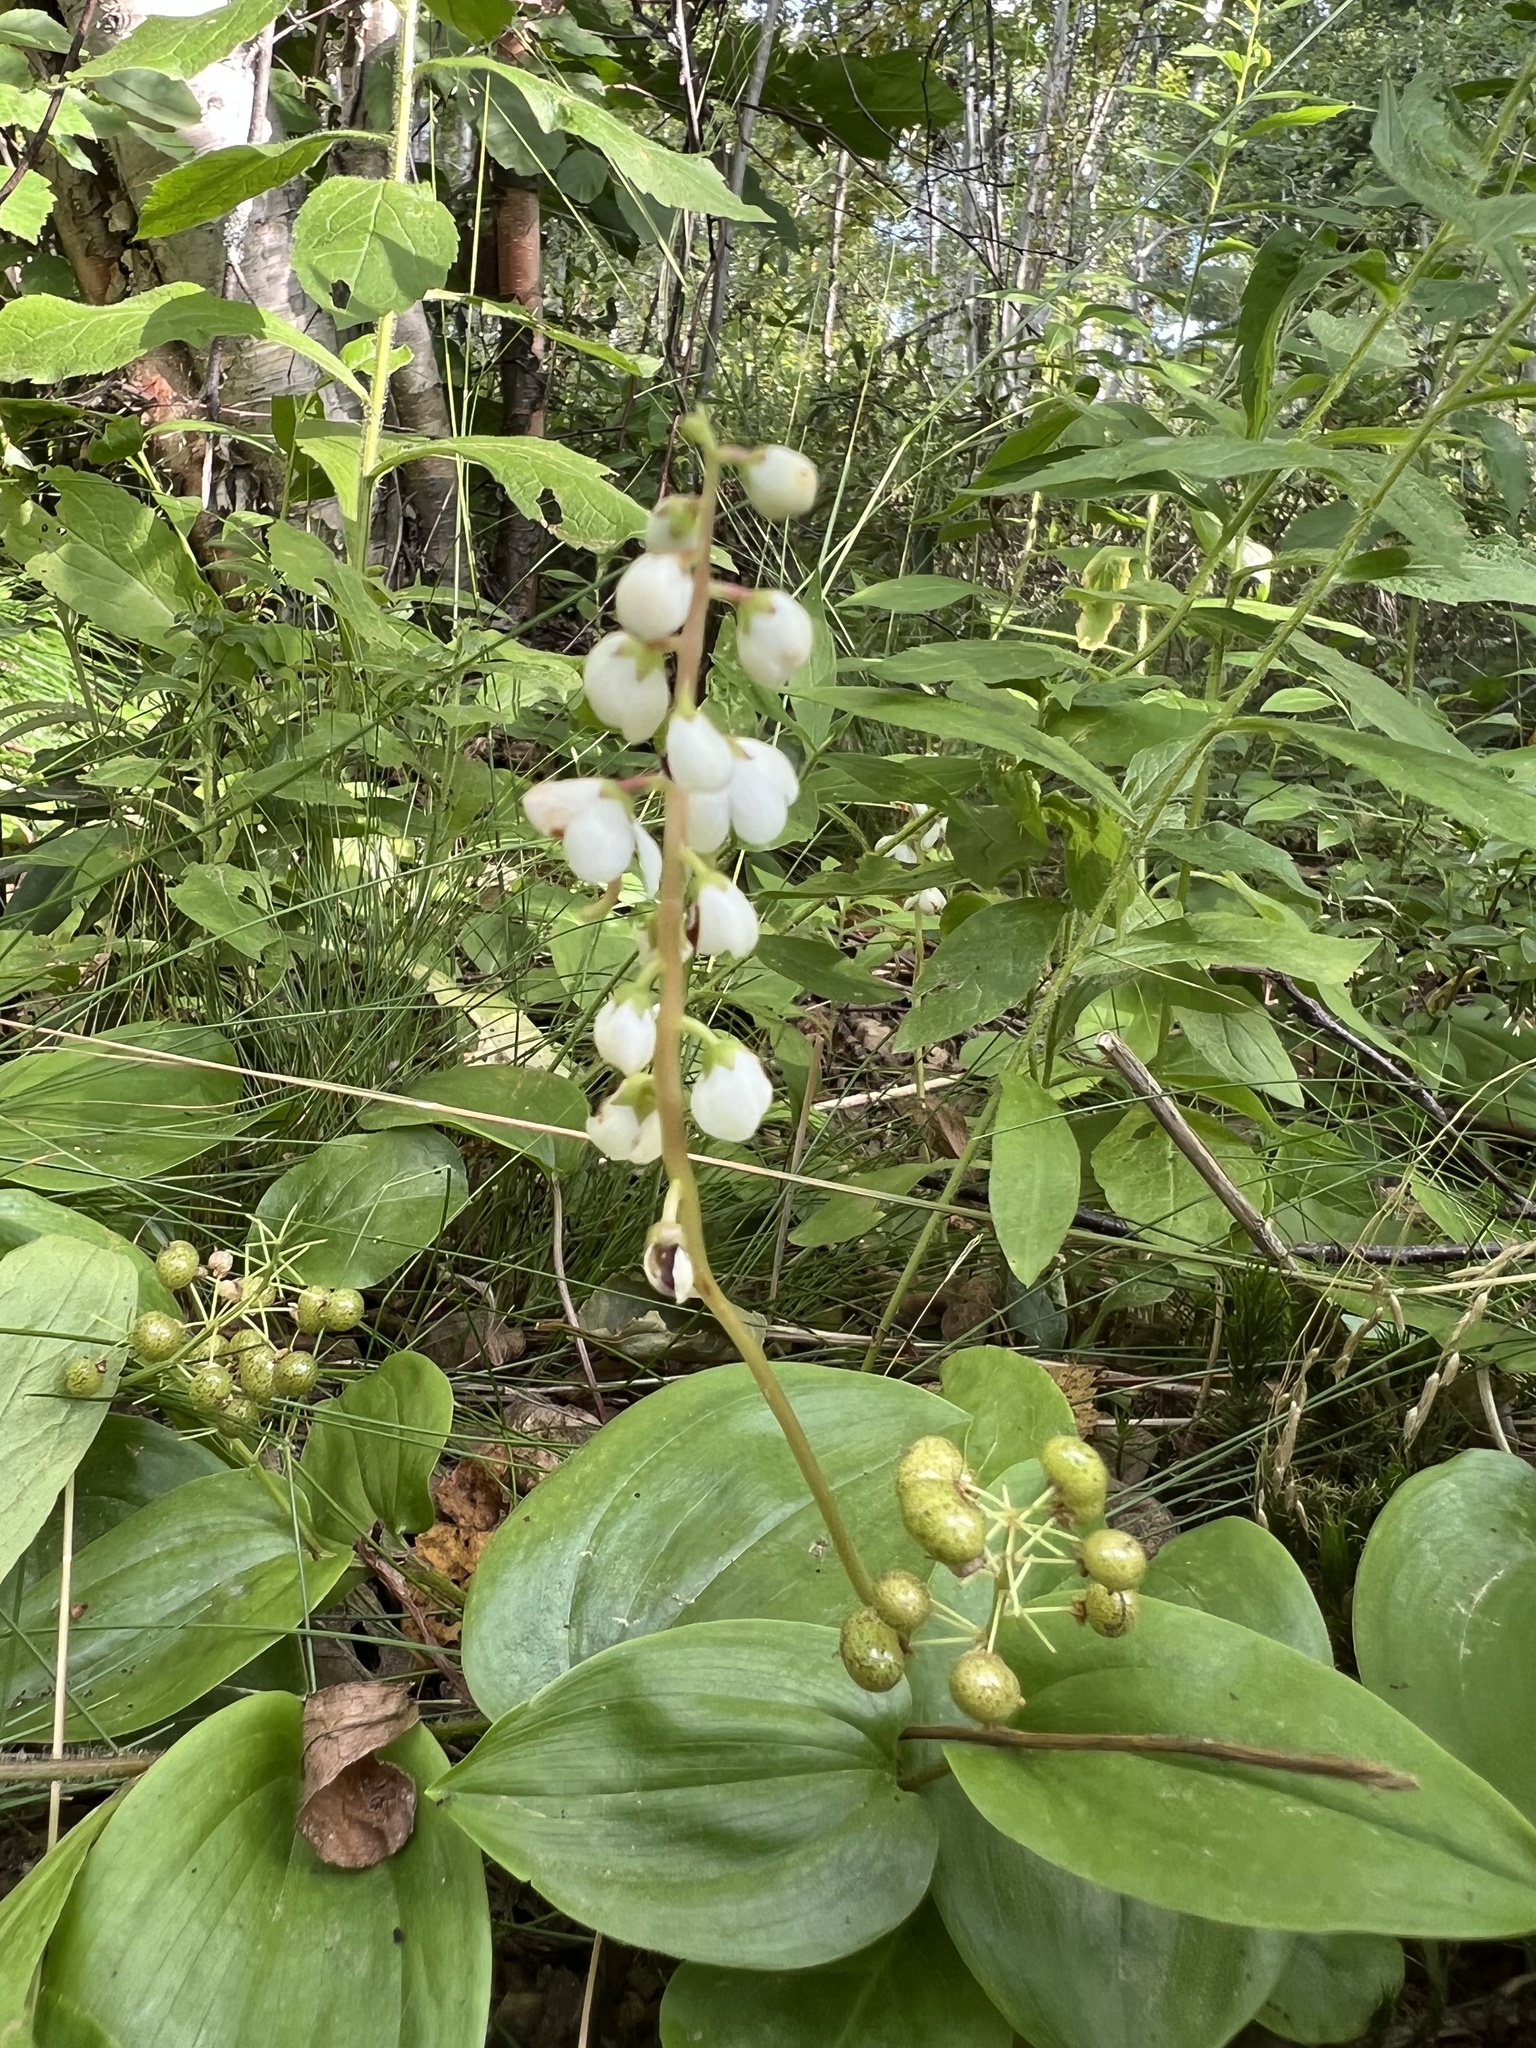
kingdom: Plantae
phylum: Tracheophyta
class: Magnoliopsida
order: Ericales
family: Ericaceae
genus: Pyrola
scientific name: Pyrola elliptica
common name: Shinleaf
